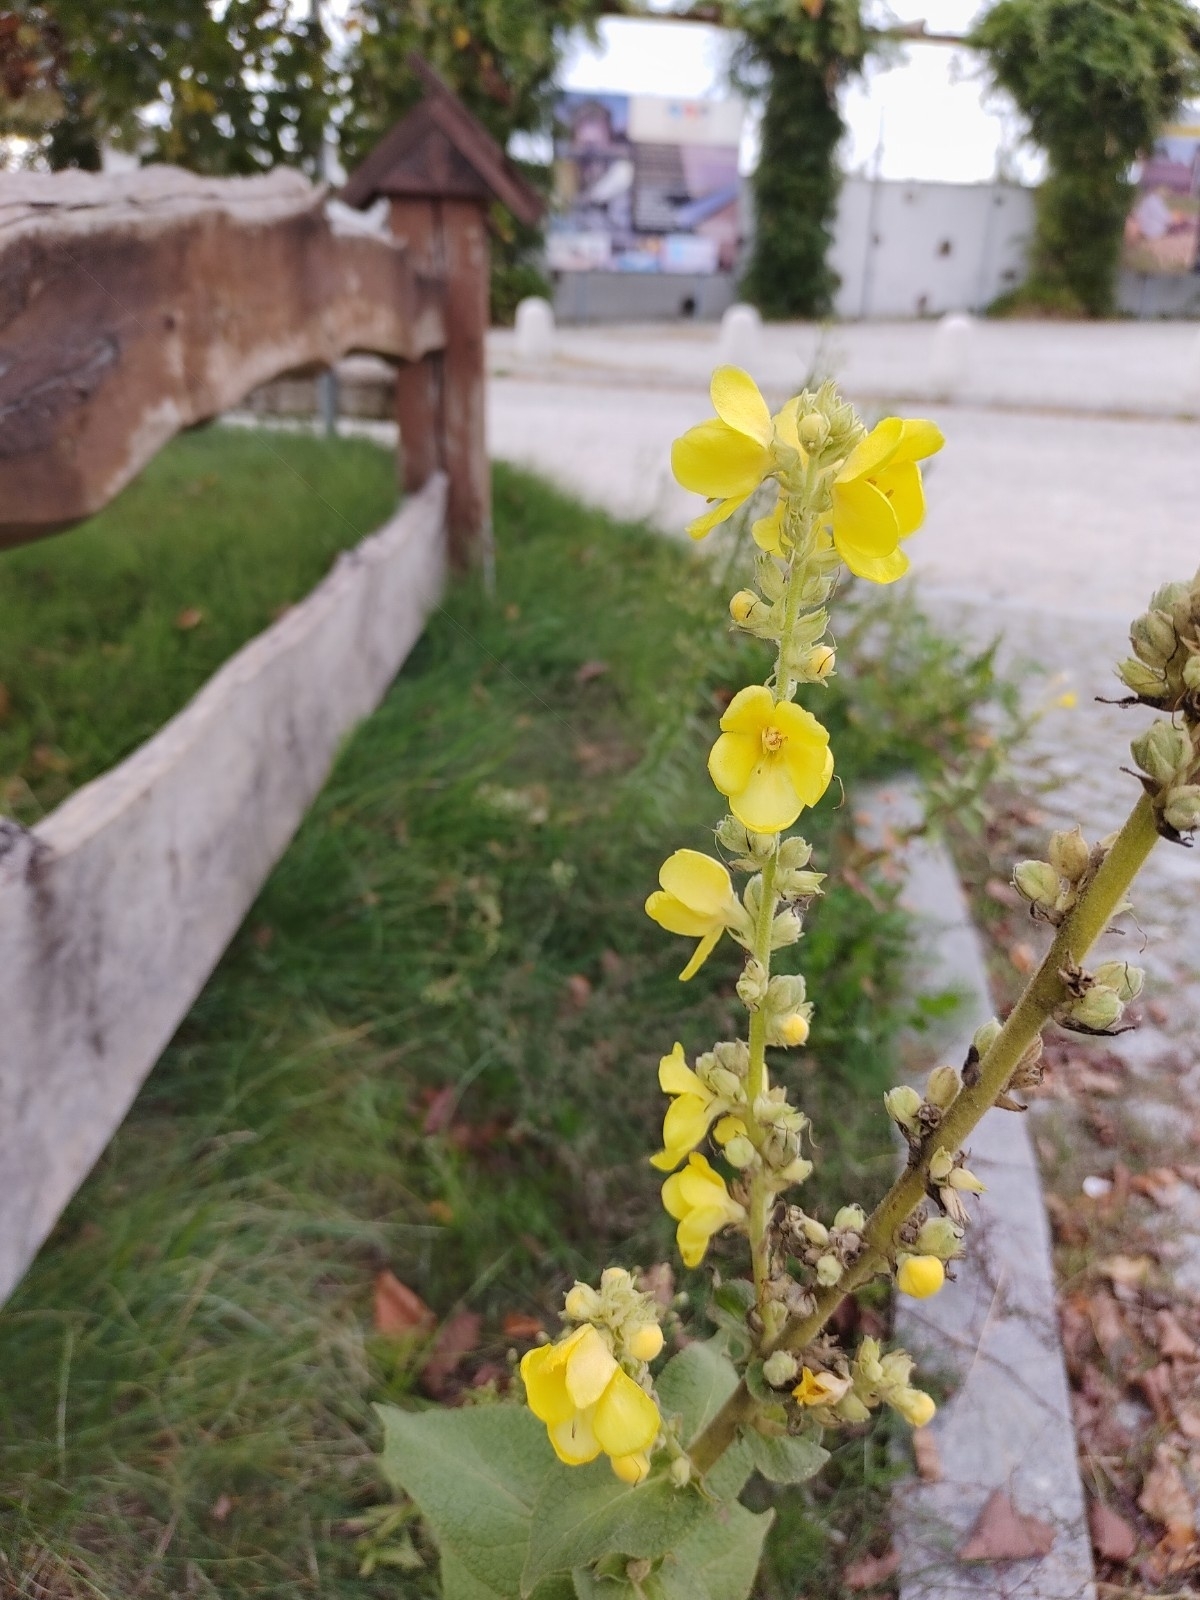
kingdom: Plantae
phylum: Tracheophyta
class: Magnoliopsida
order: Lamiales
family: Scrophulariaceae
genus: Verbascum
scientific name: Verbascum phlomoides
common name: Orange mullein
